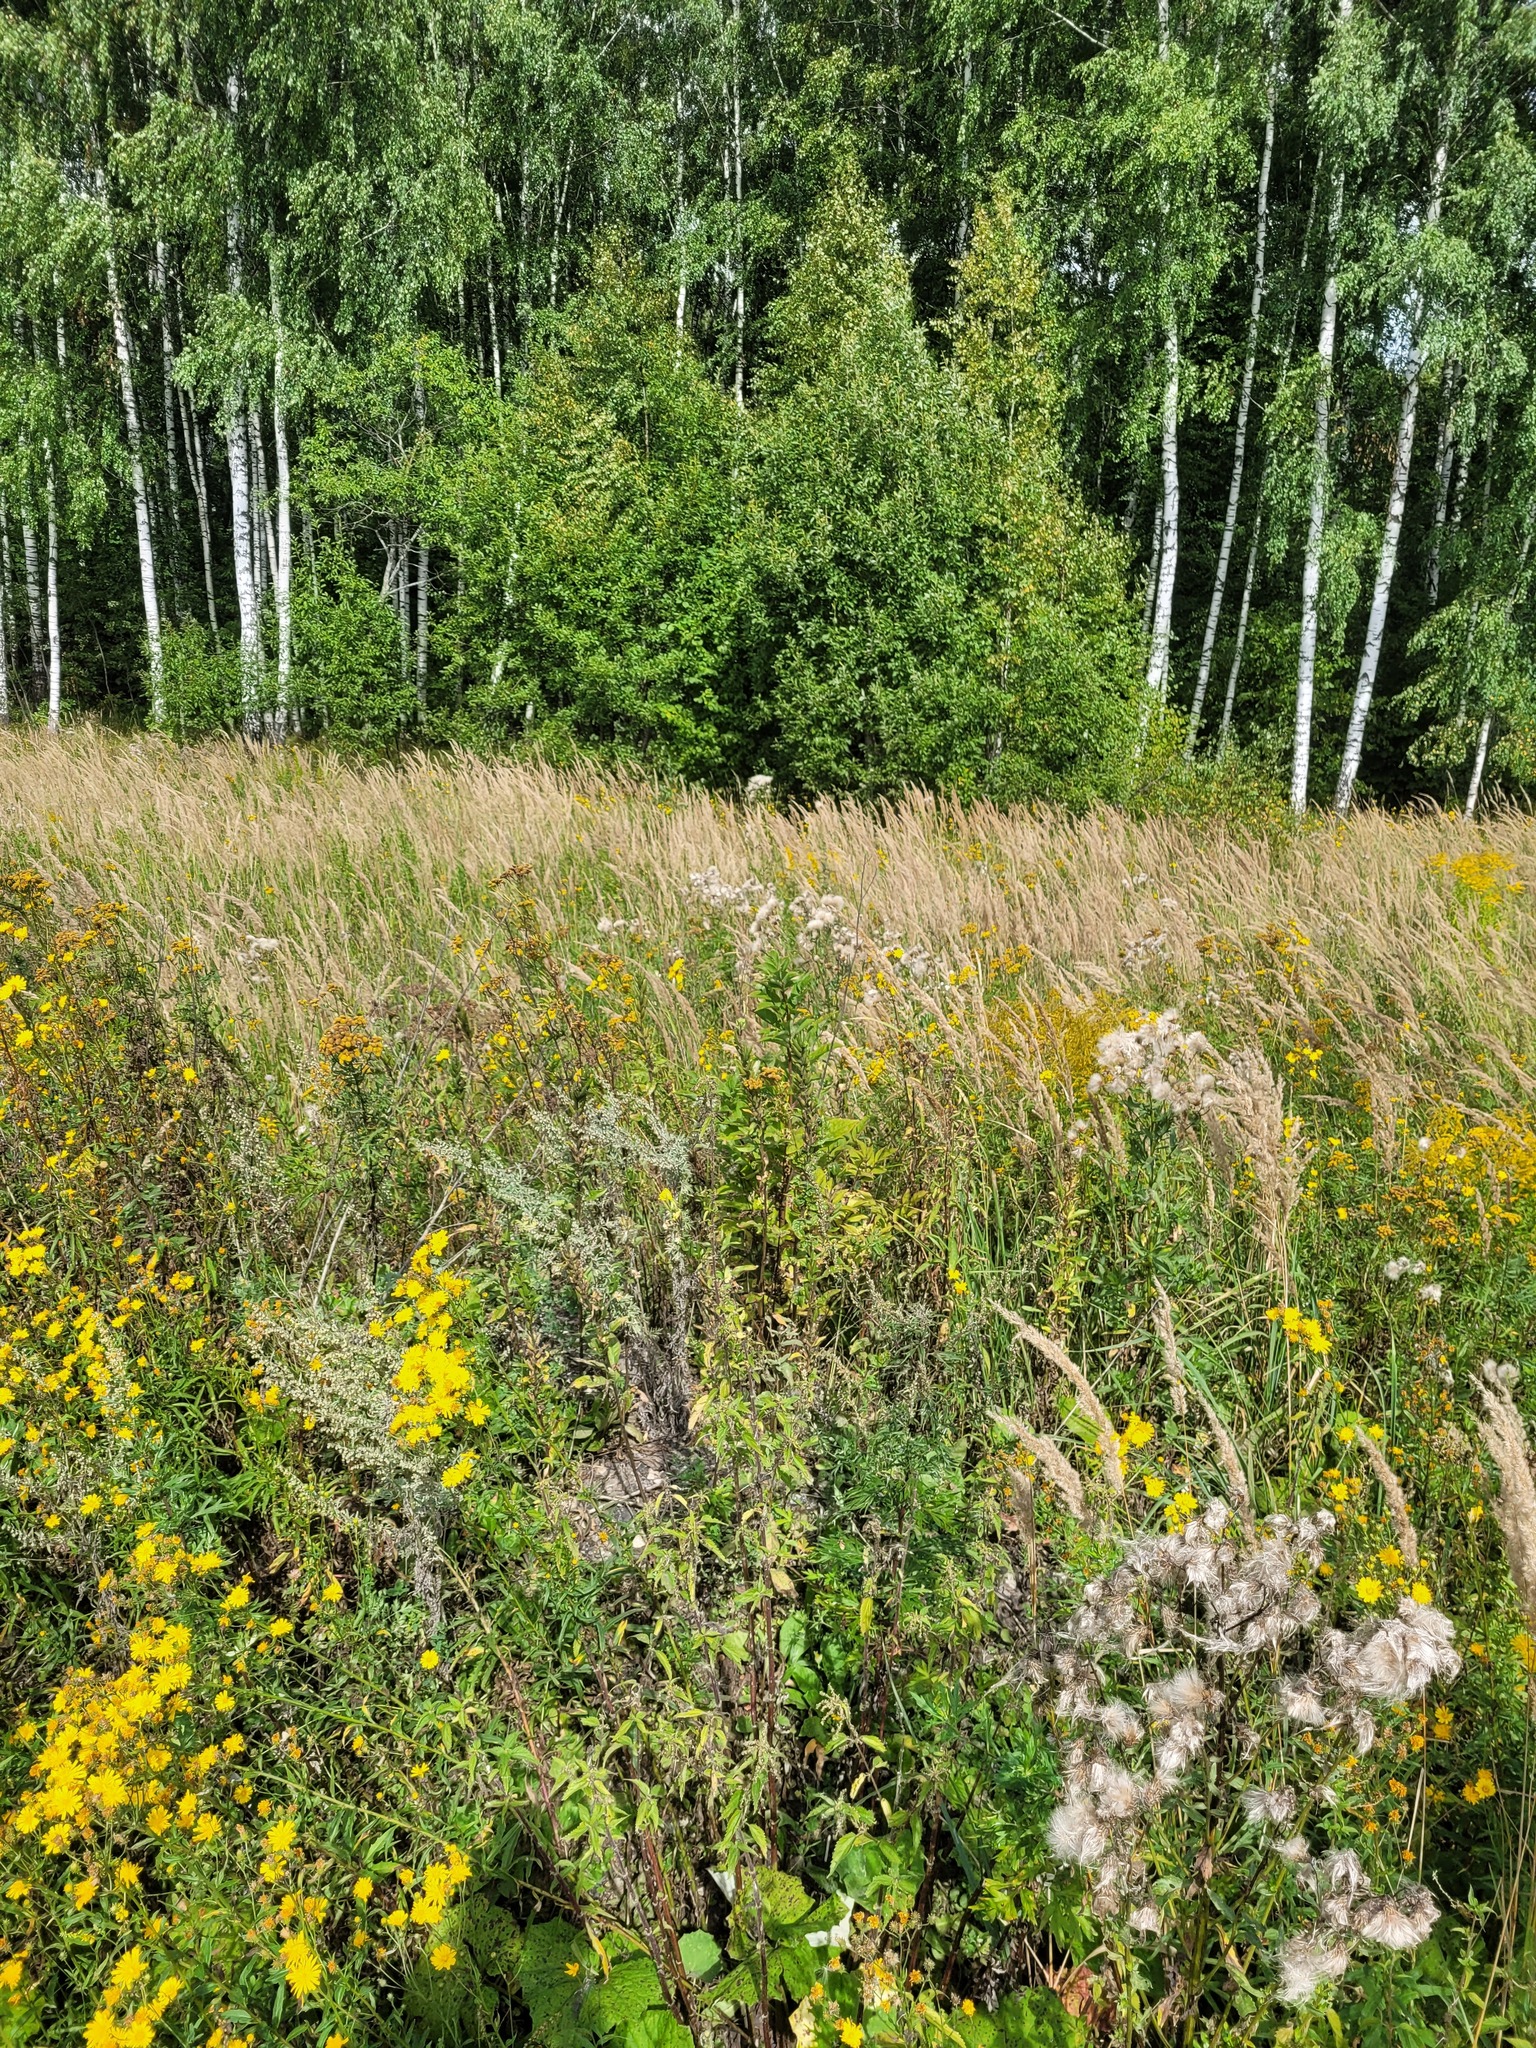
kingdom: Plantae
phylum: Tracheophyta
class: Magnoliopsida
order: Rosales
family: Urticaceae
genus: Urtica
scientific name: Urtica dioica
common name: Common nettle
